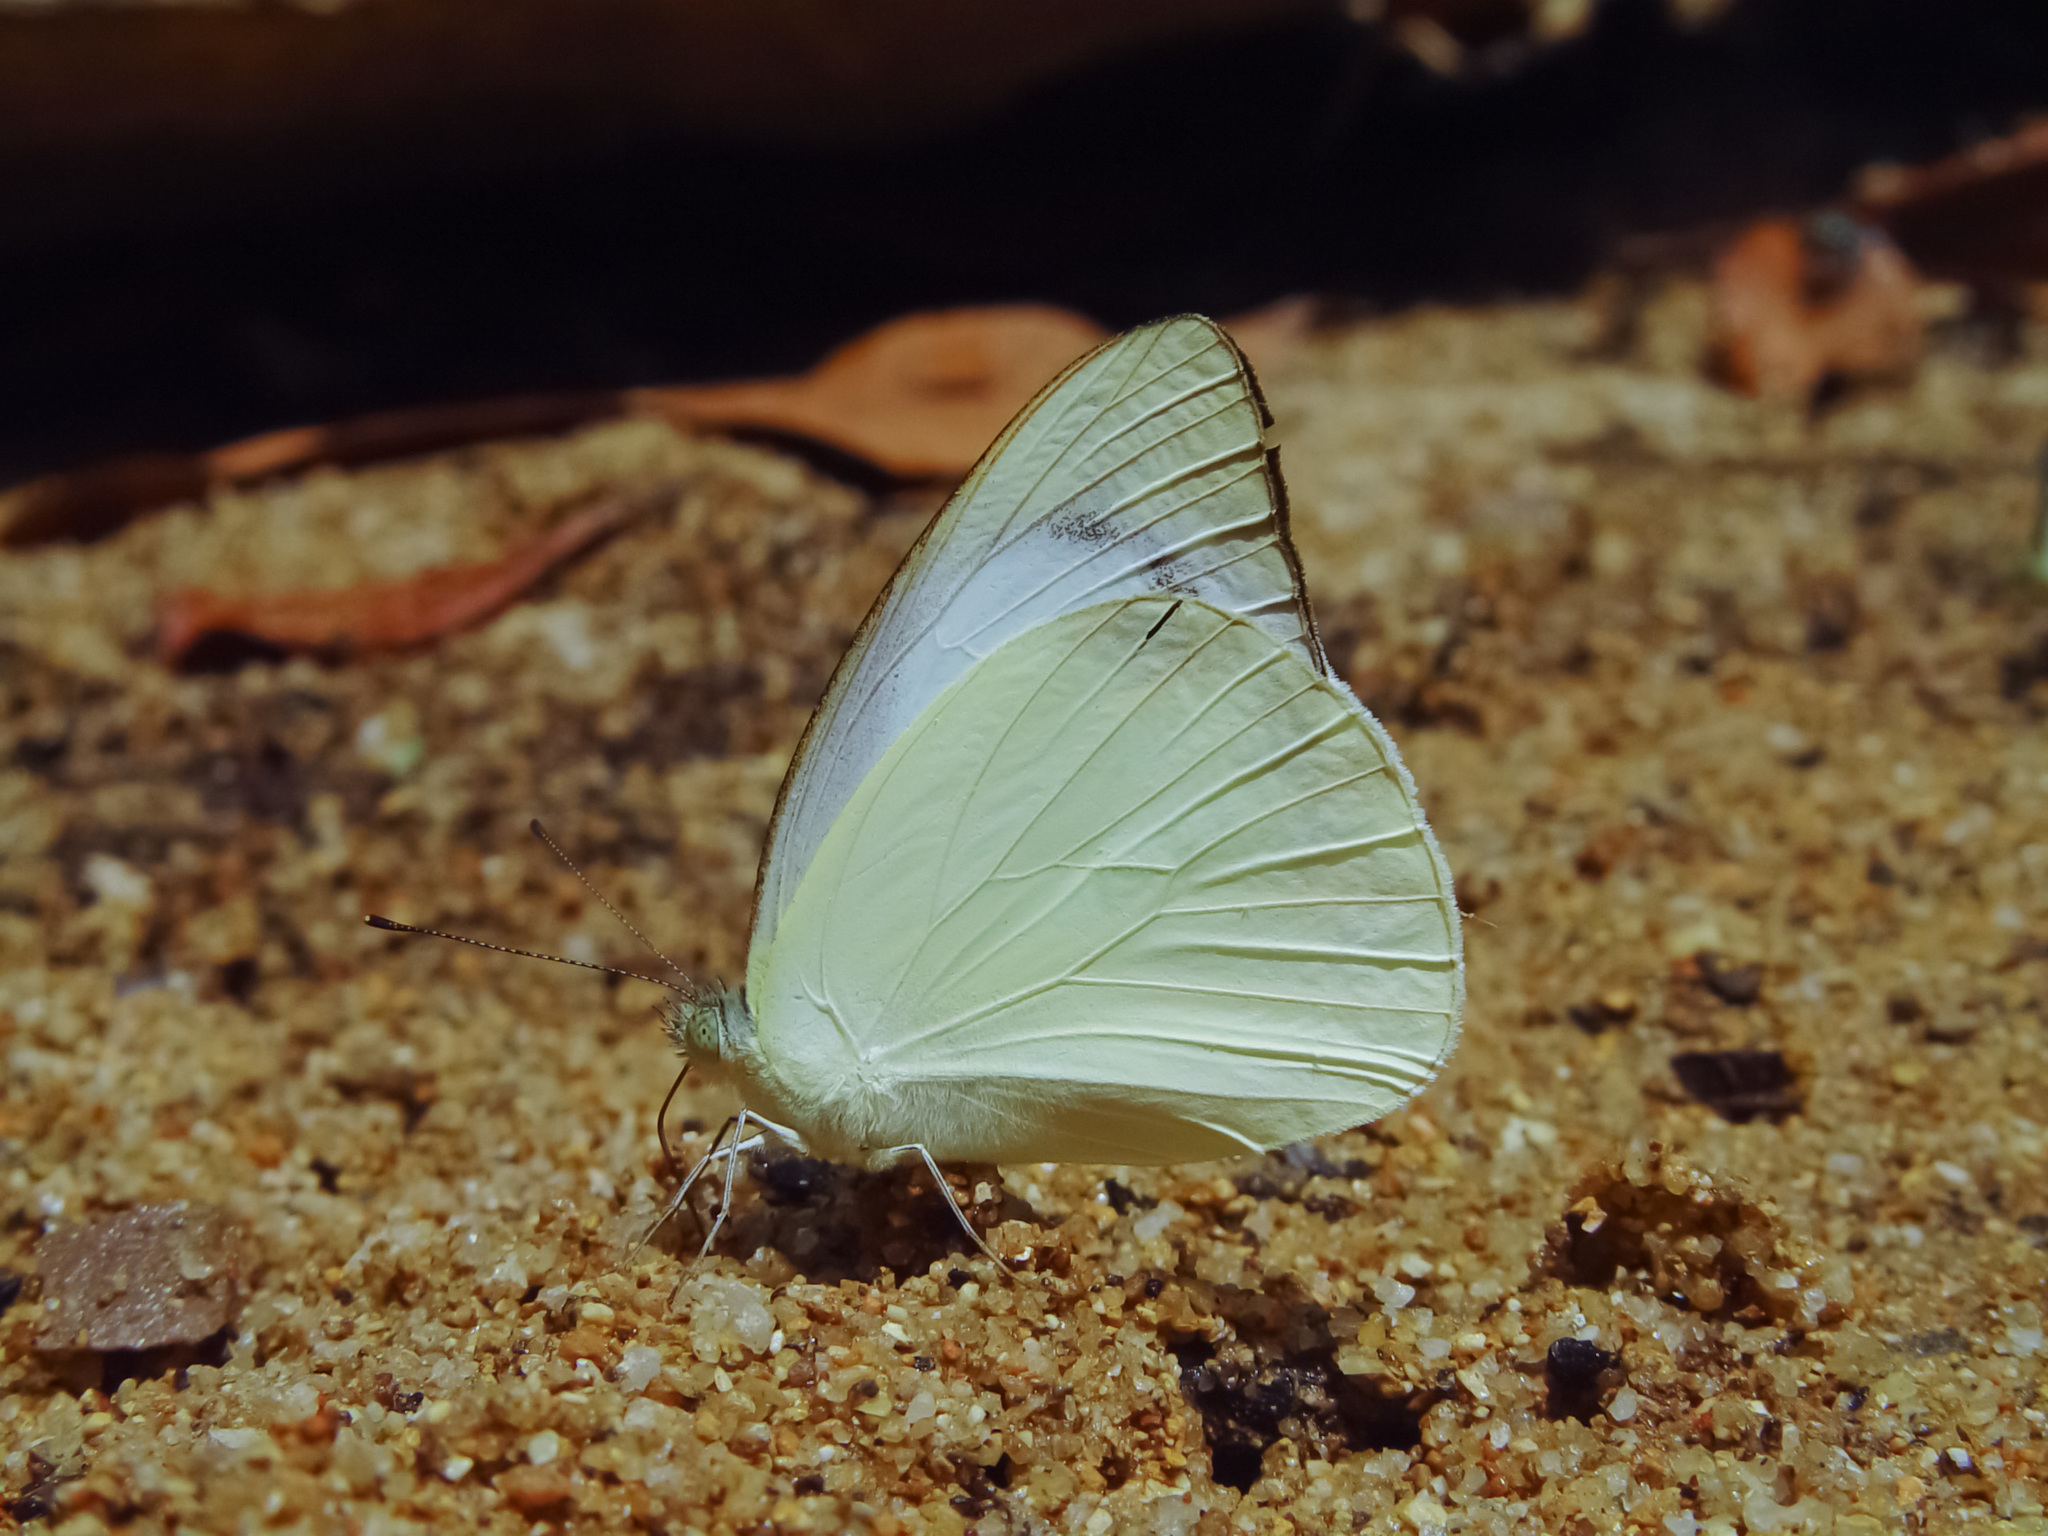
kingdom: Animalia
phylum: Arthropoda
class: Insecta
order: Lepidoptera
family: Pieridae
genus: Appias
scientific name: Appias paulina
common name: Ceylon lesser albatross
